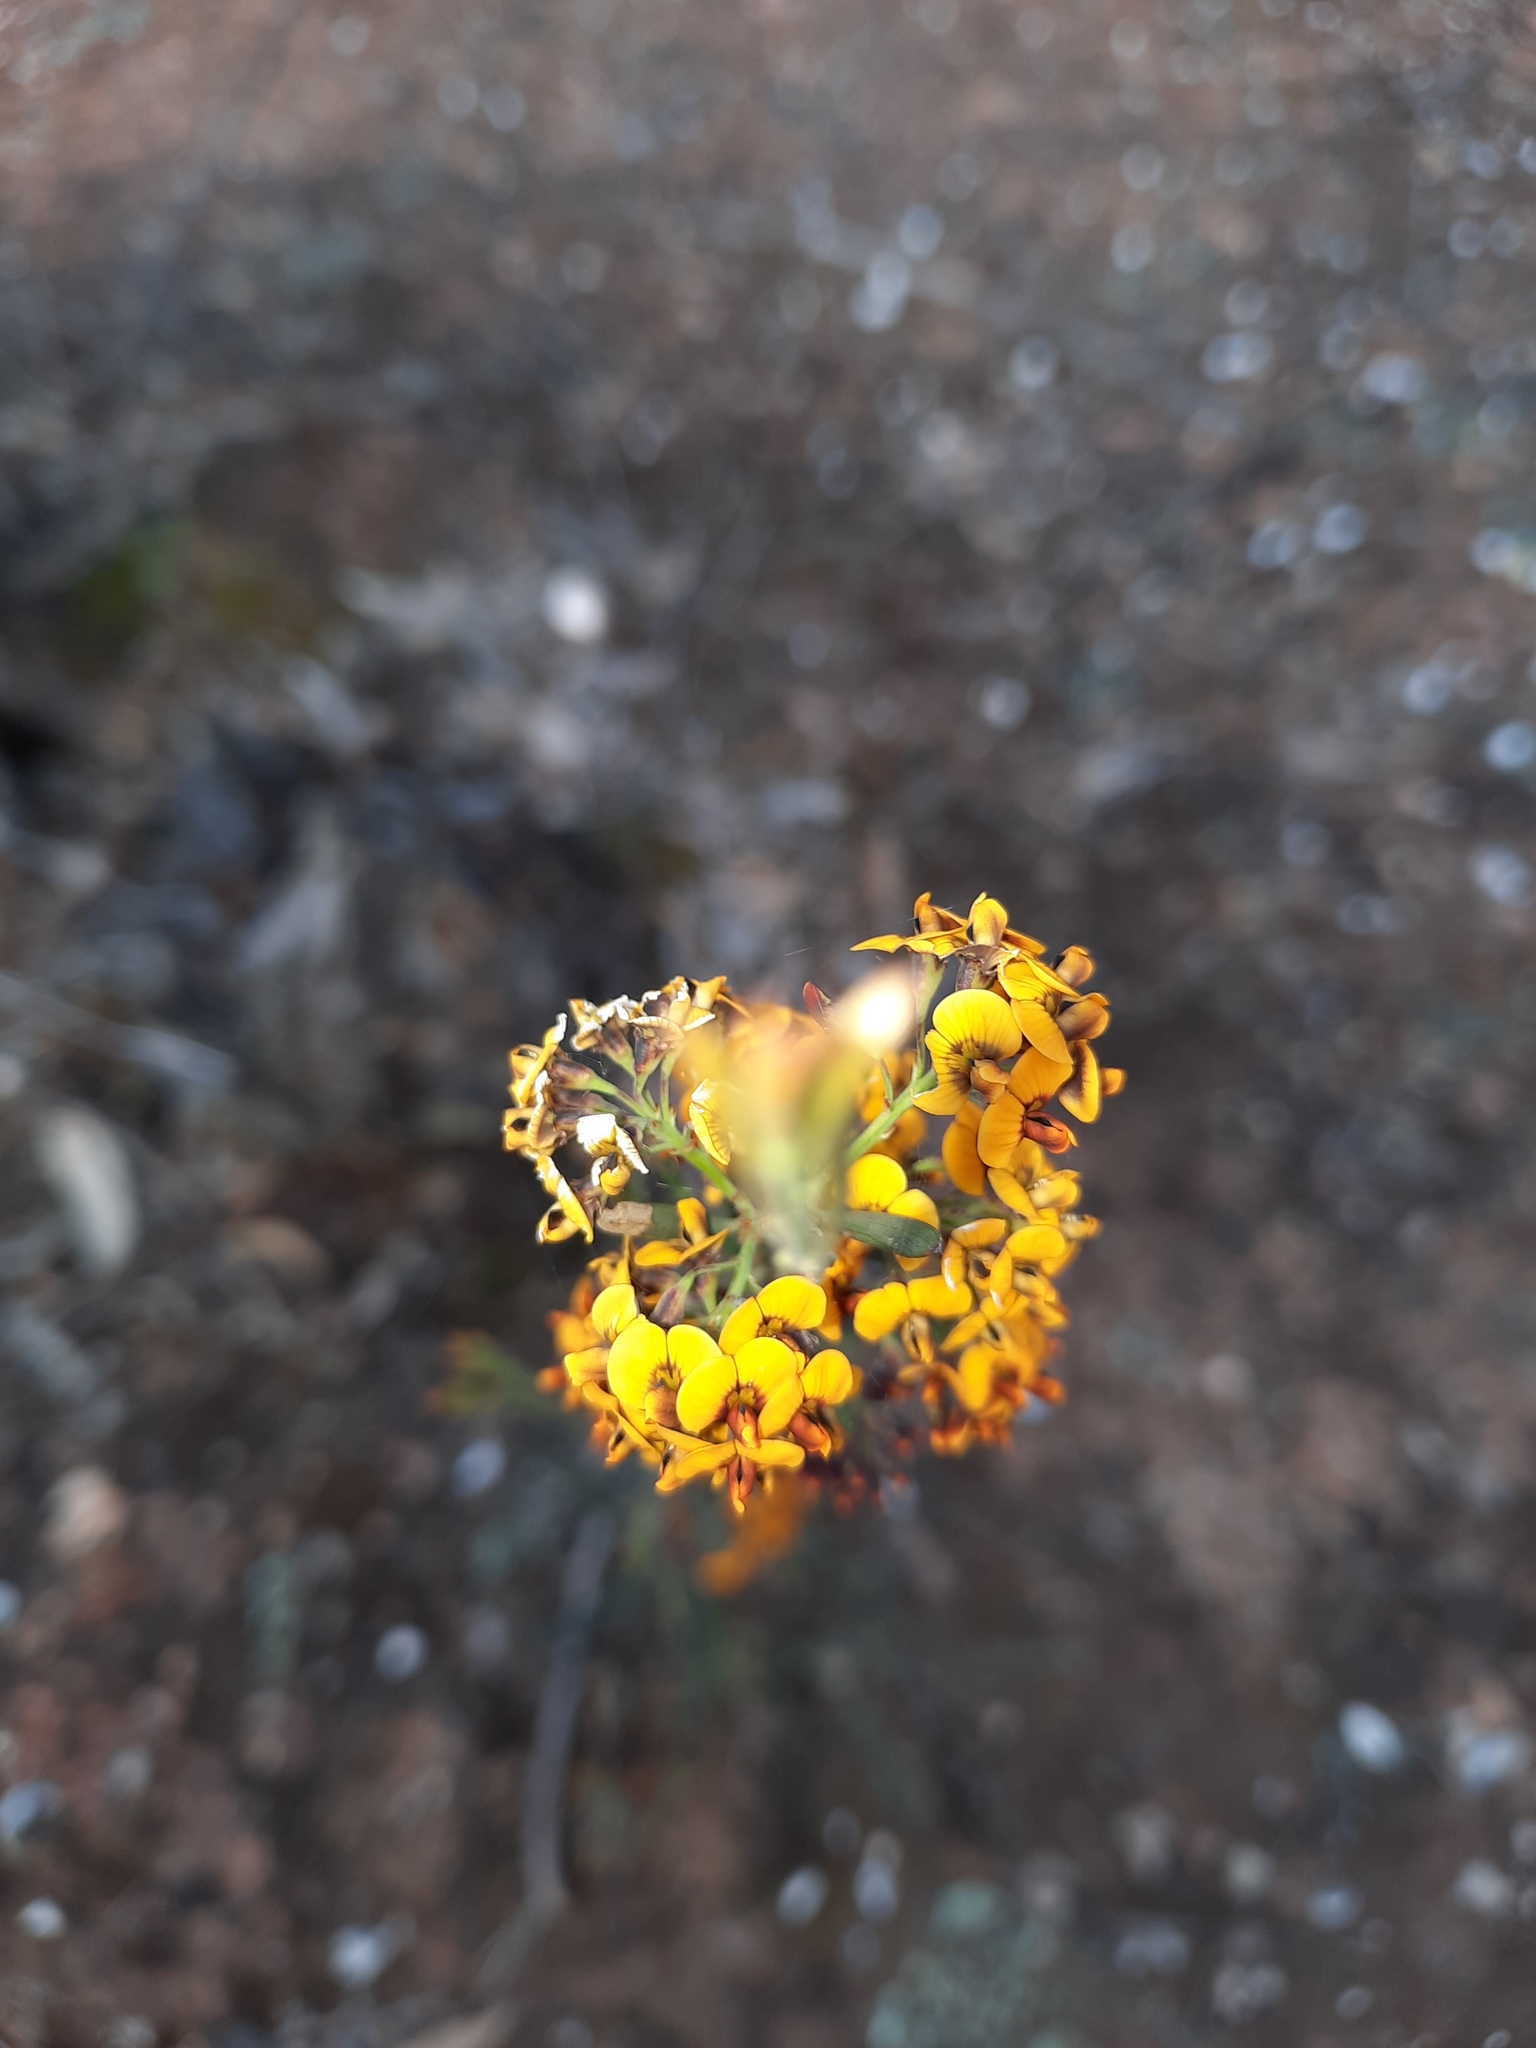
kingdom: Plantae
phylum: Tracheophyta
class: Magnoliopsida
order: Fabales
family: Fabaceae
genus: Daviesia
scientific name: Daviesia leptophylla
